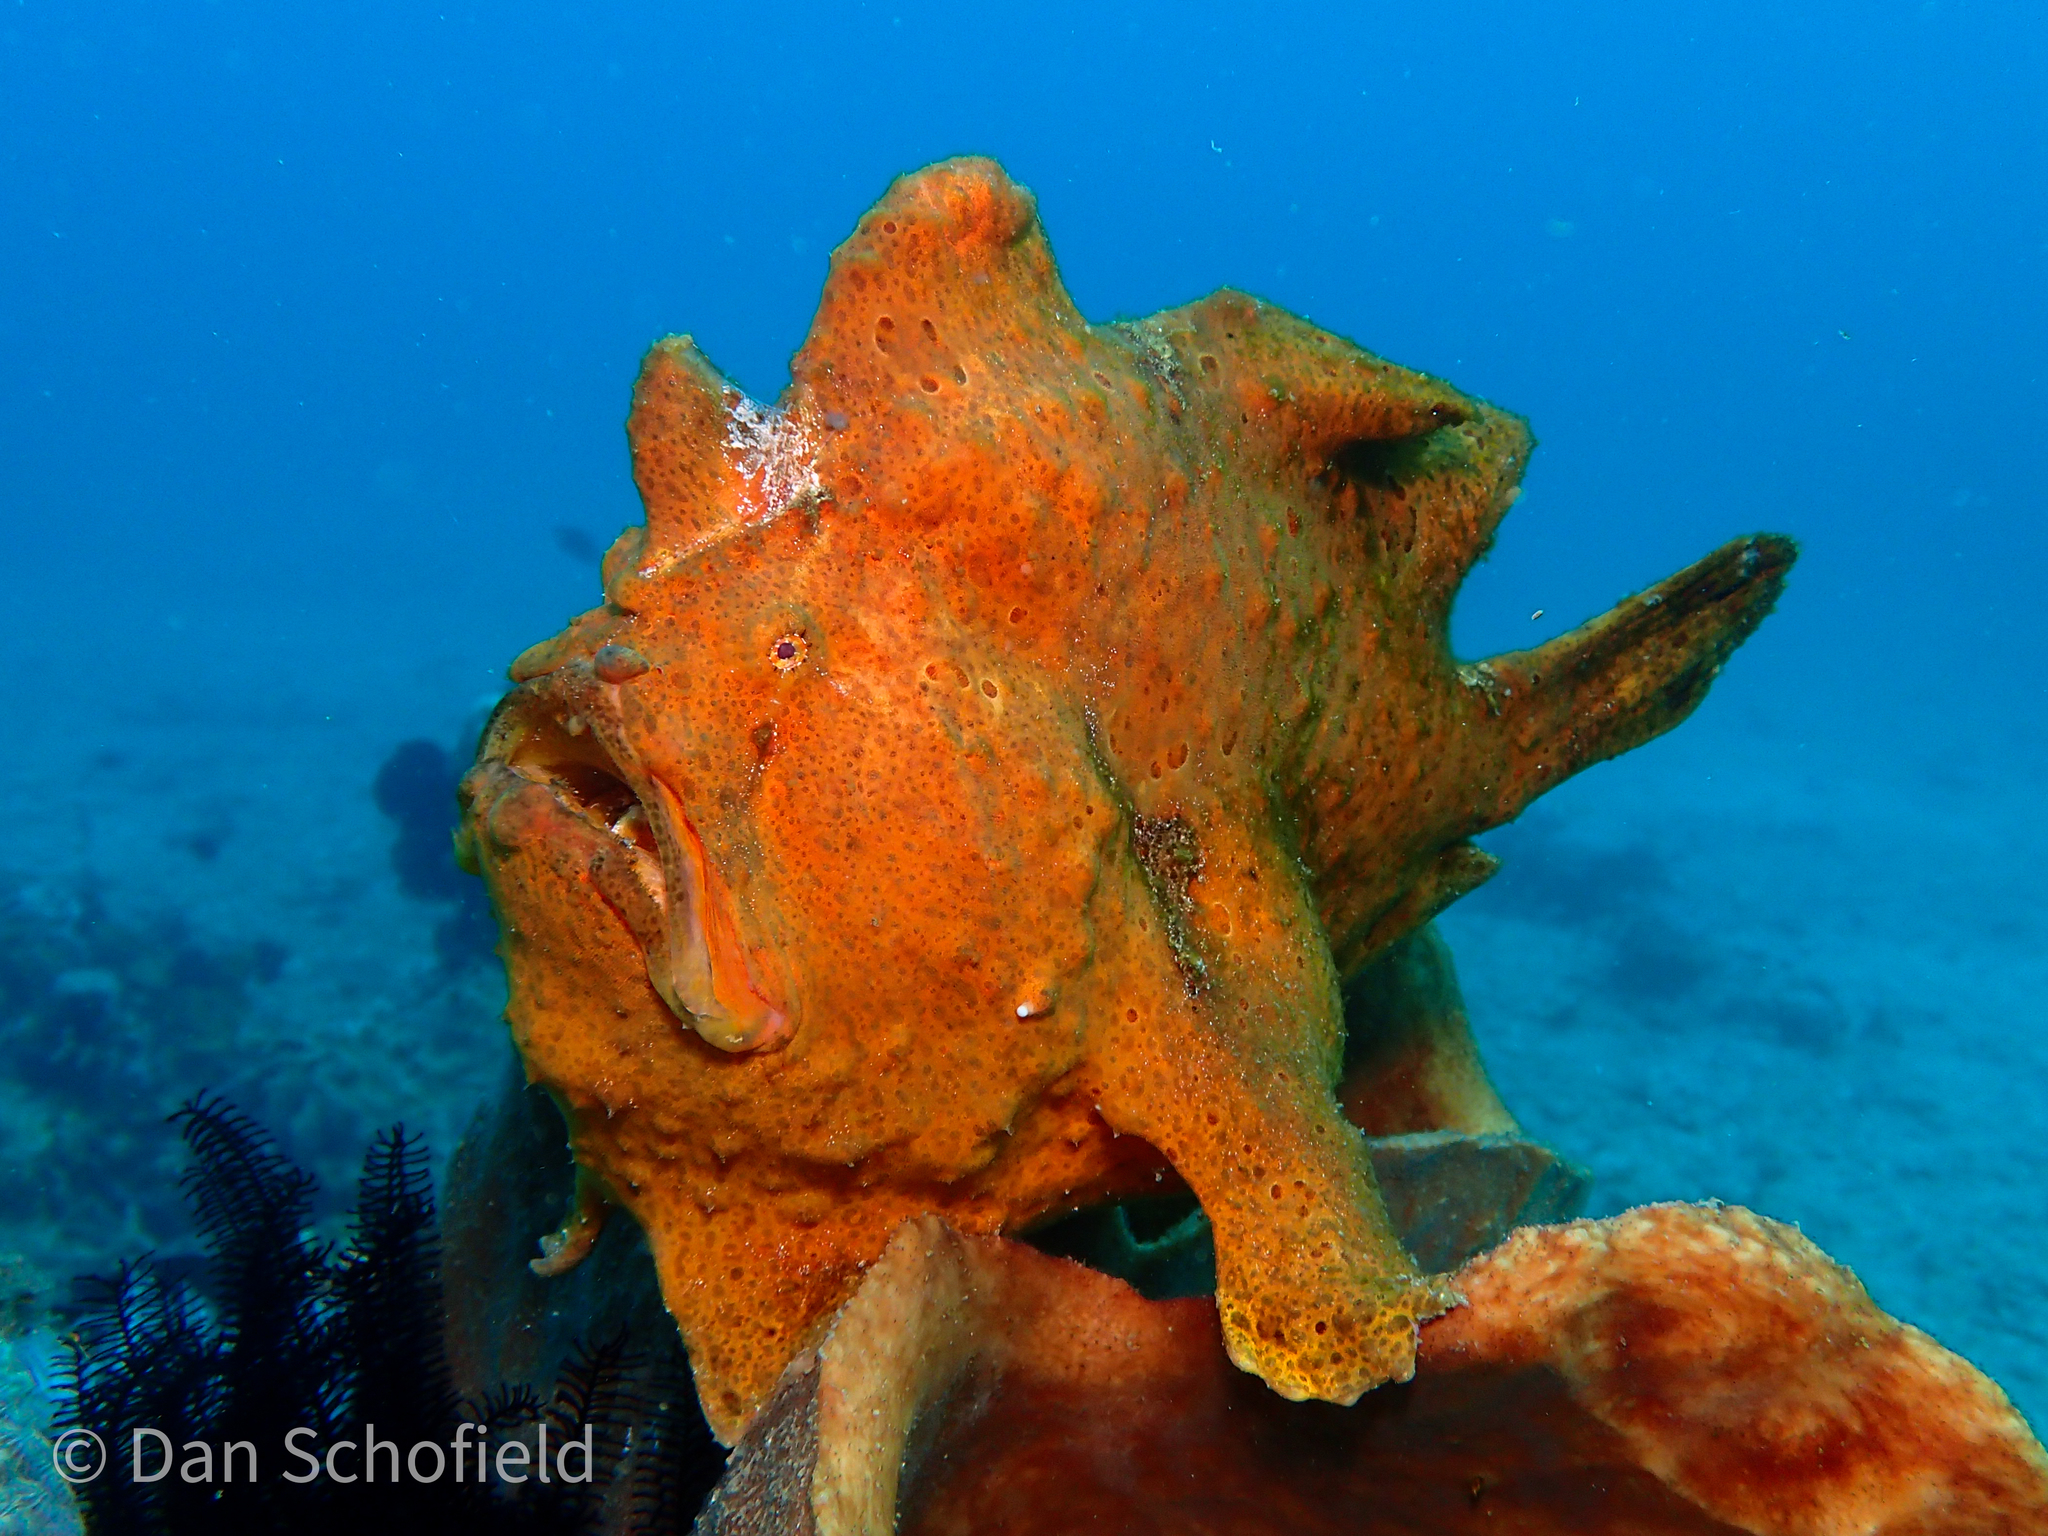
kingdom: Animalia
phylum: Chordata
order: Lophiiformes
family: Antennariidae
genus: Antennarius
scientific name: Antennarius commerson
